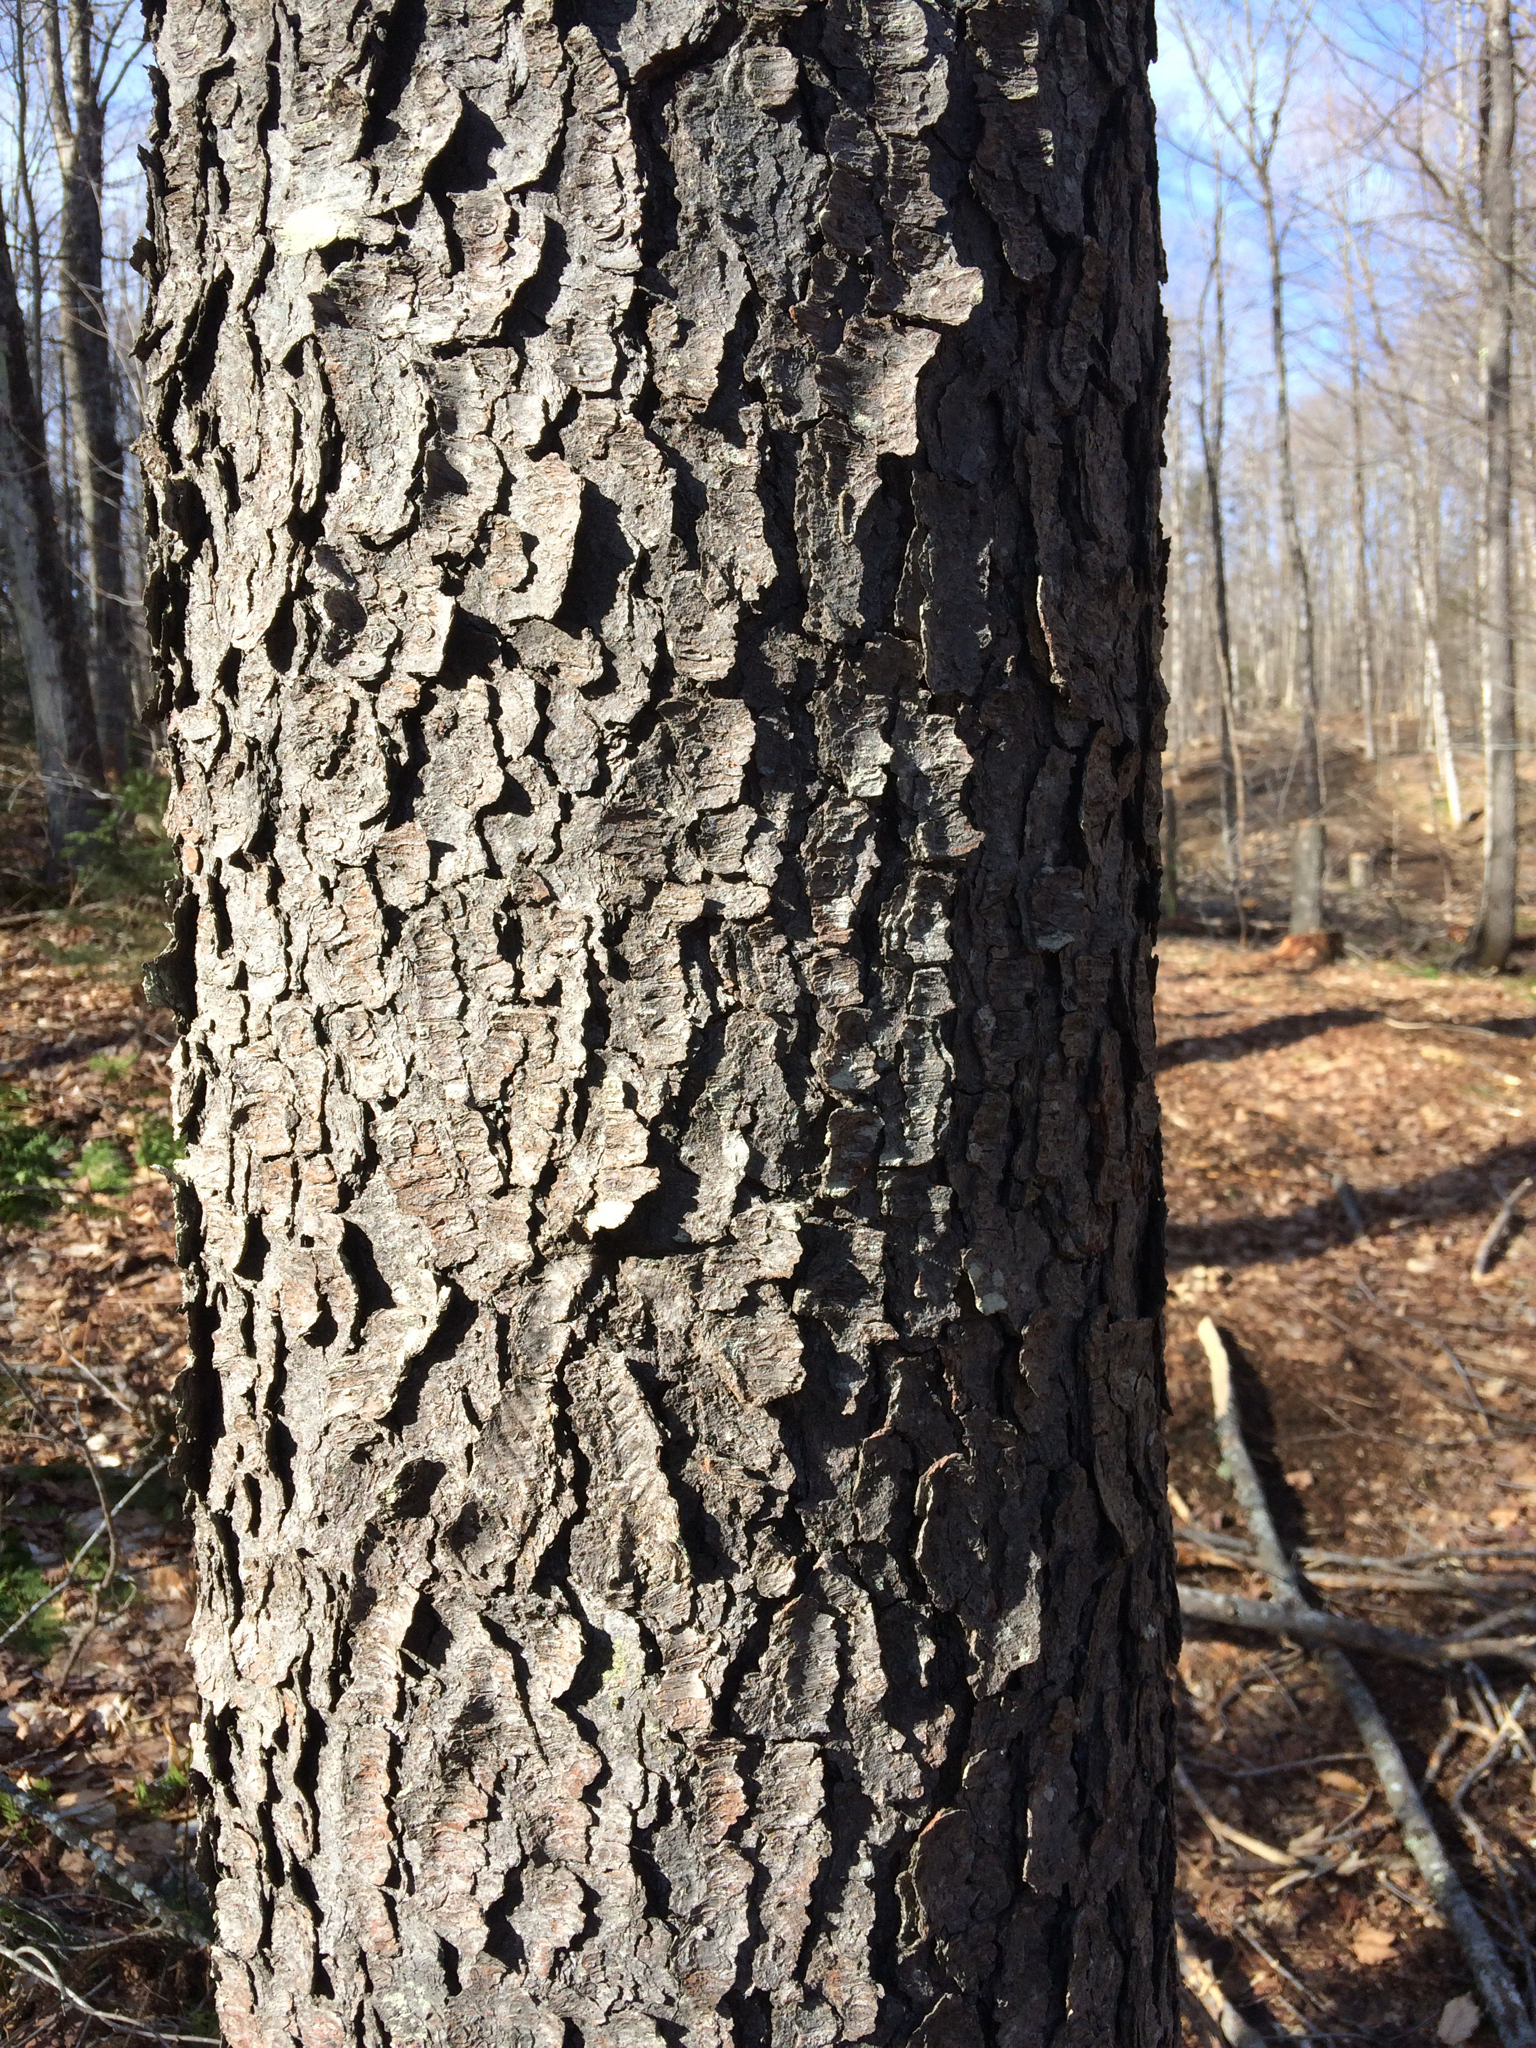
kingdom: Plantae
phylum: Tracheophyta
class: Magnoliopsida
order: Rosales
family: Rosaceae
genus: Prunus
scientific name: Prunus serotina
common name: Black cherry
